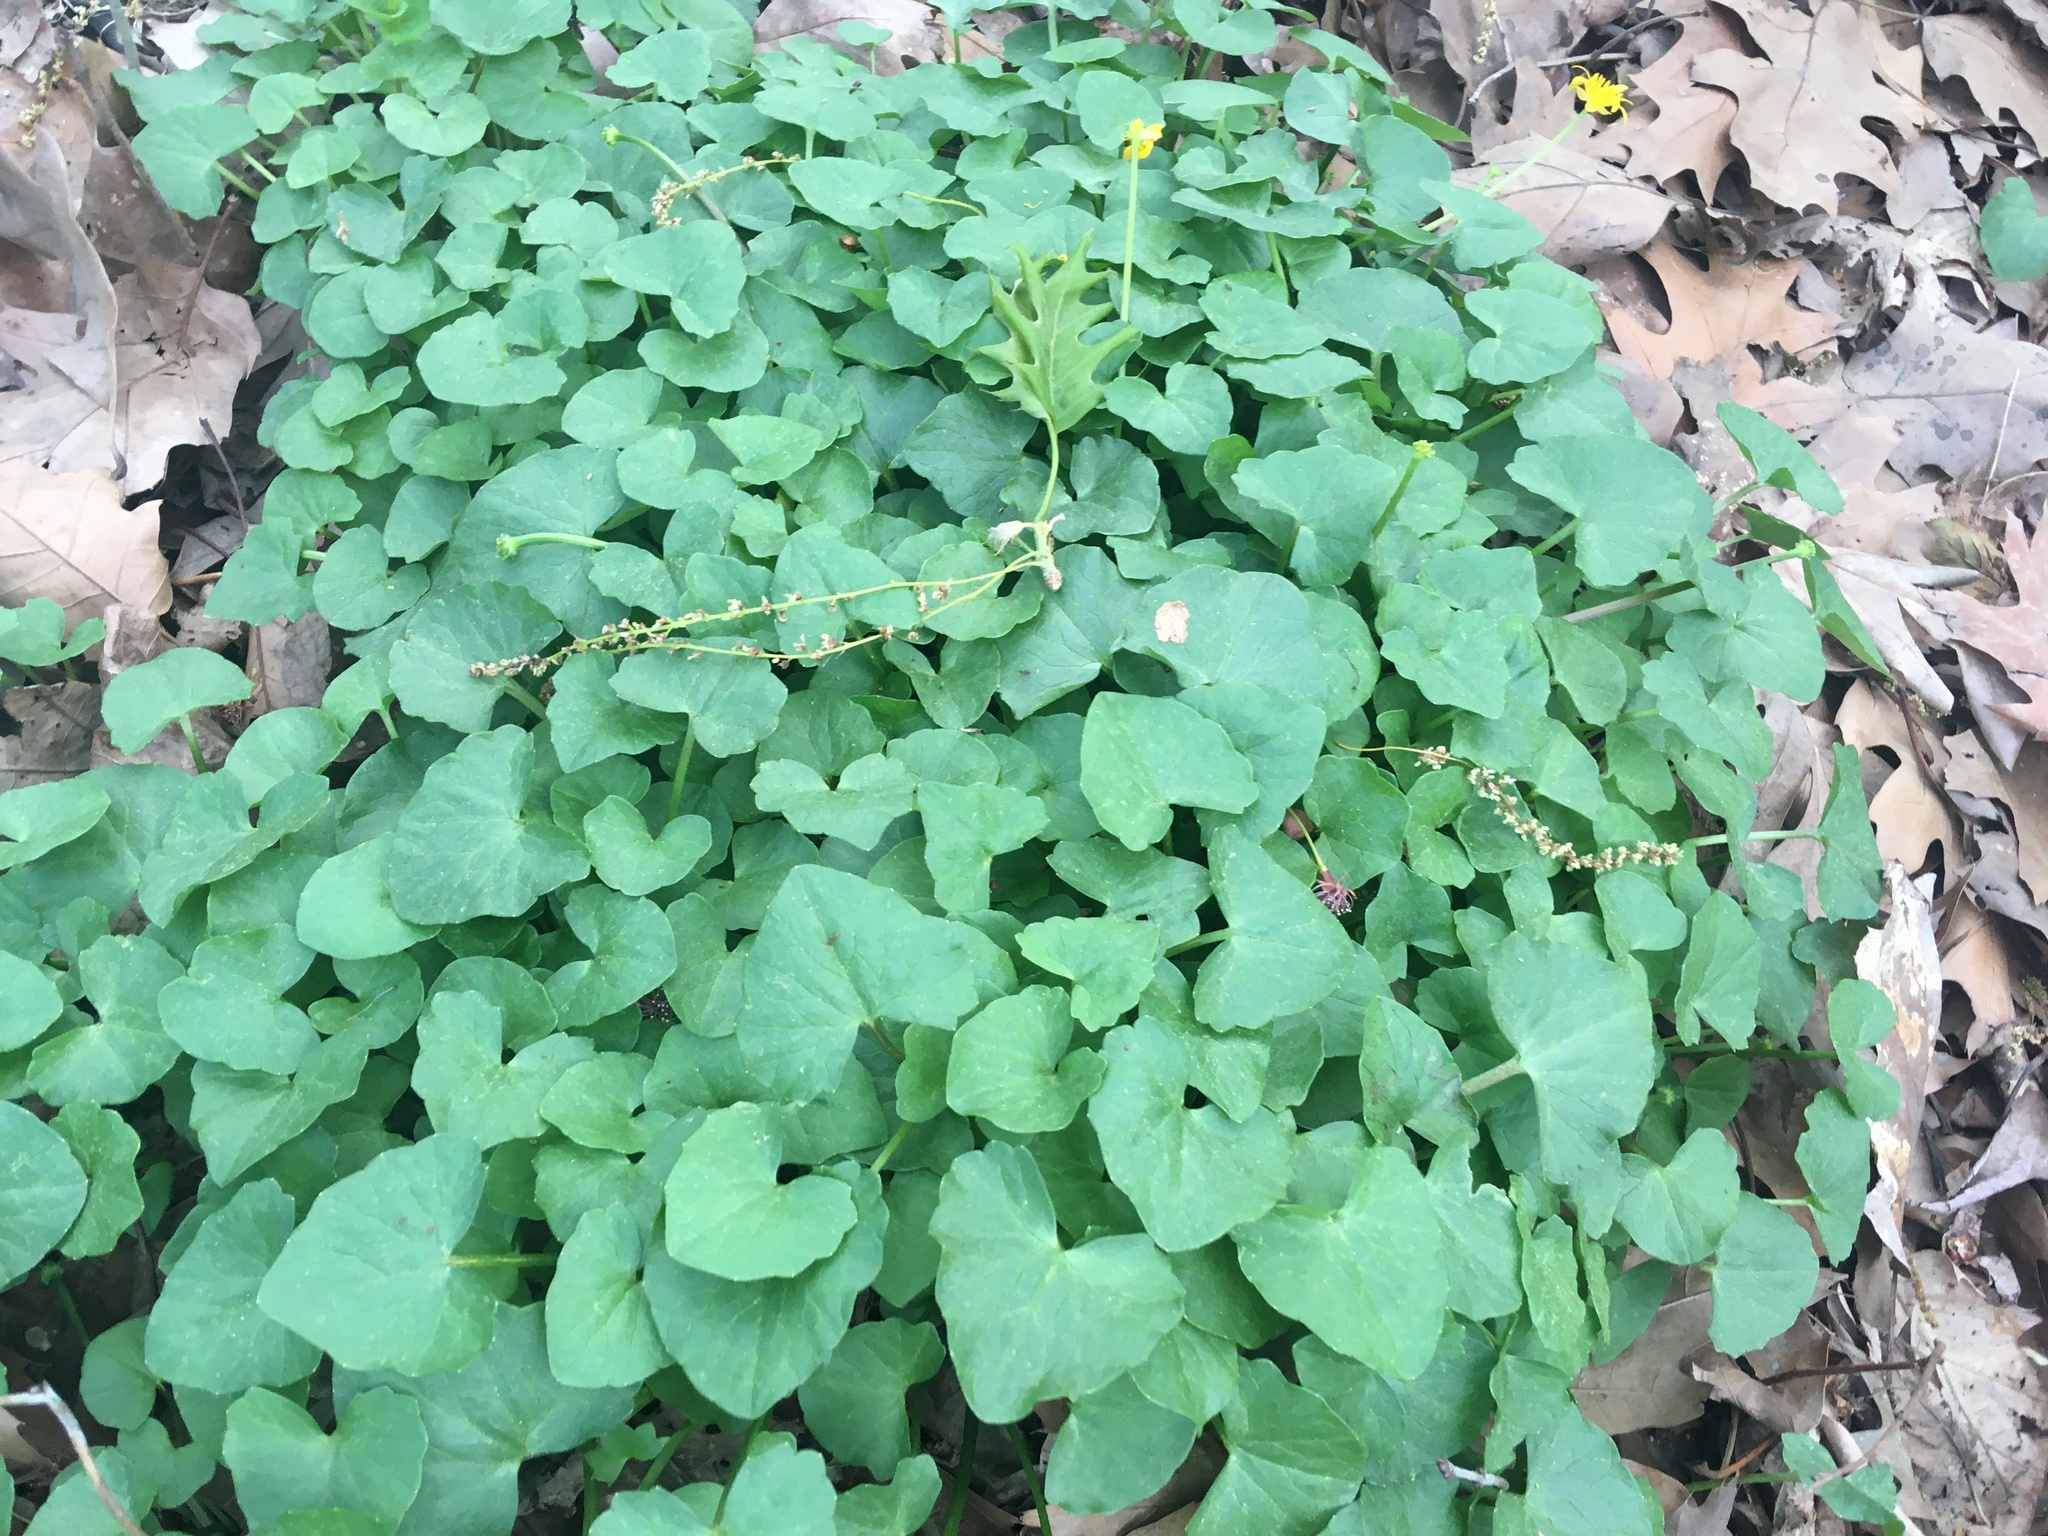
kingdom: Plantae
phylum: Tracheophyta
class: Magnoliopsida
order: Ranunculales
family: Ranunculaceae
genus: Ficaria
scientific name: Ficaria verna
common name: Lesser celandine
